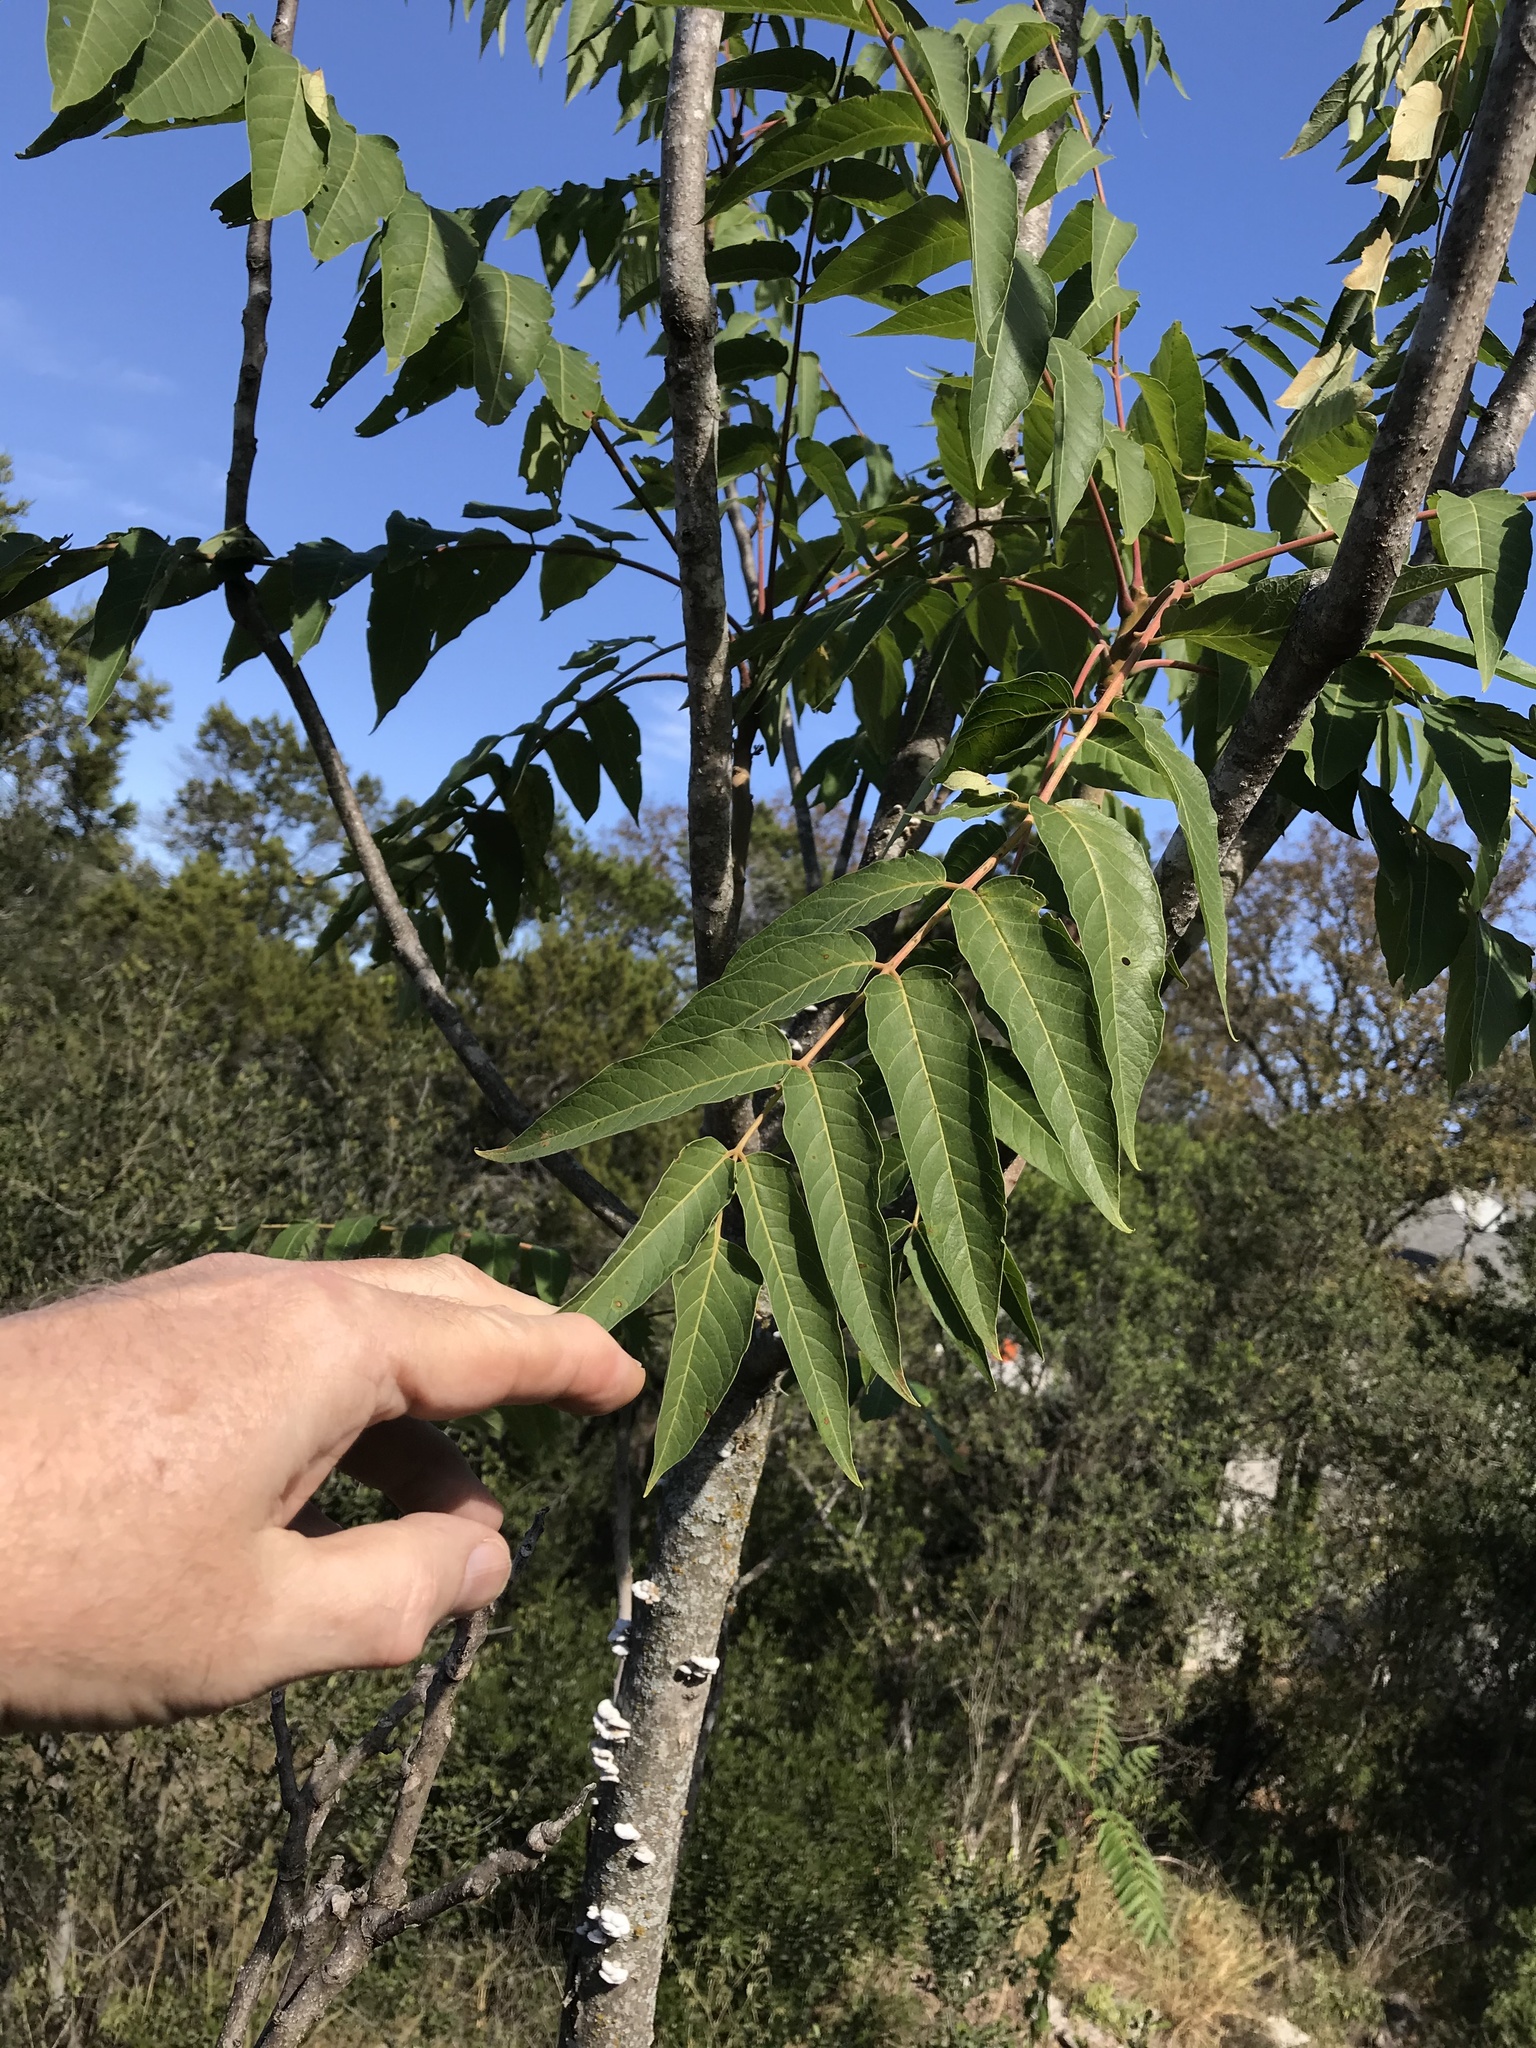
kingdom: Plantae
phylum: Tracheophyta
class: Magnoliopsida
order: Sapindales
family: Simaroubaceae
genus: Ailanthus
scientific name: Ailanthus altissima
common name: Tree-of-heaven
